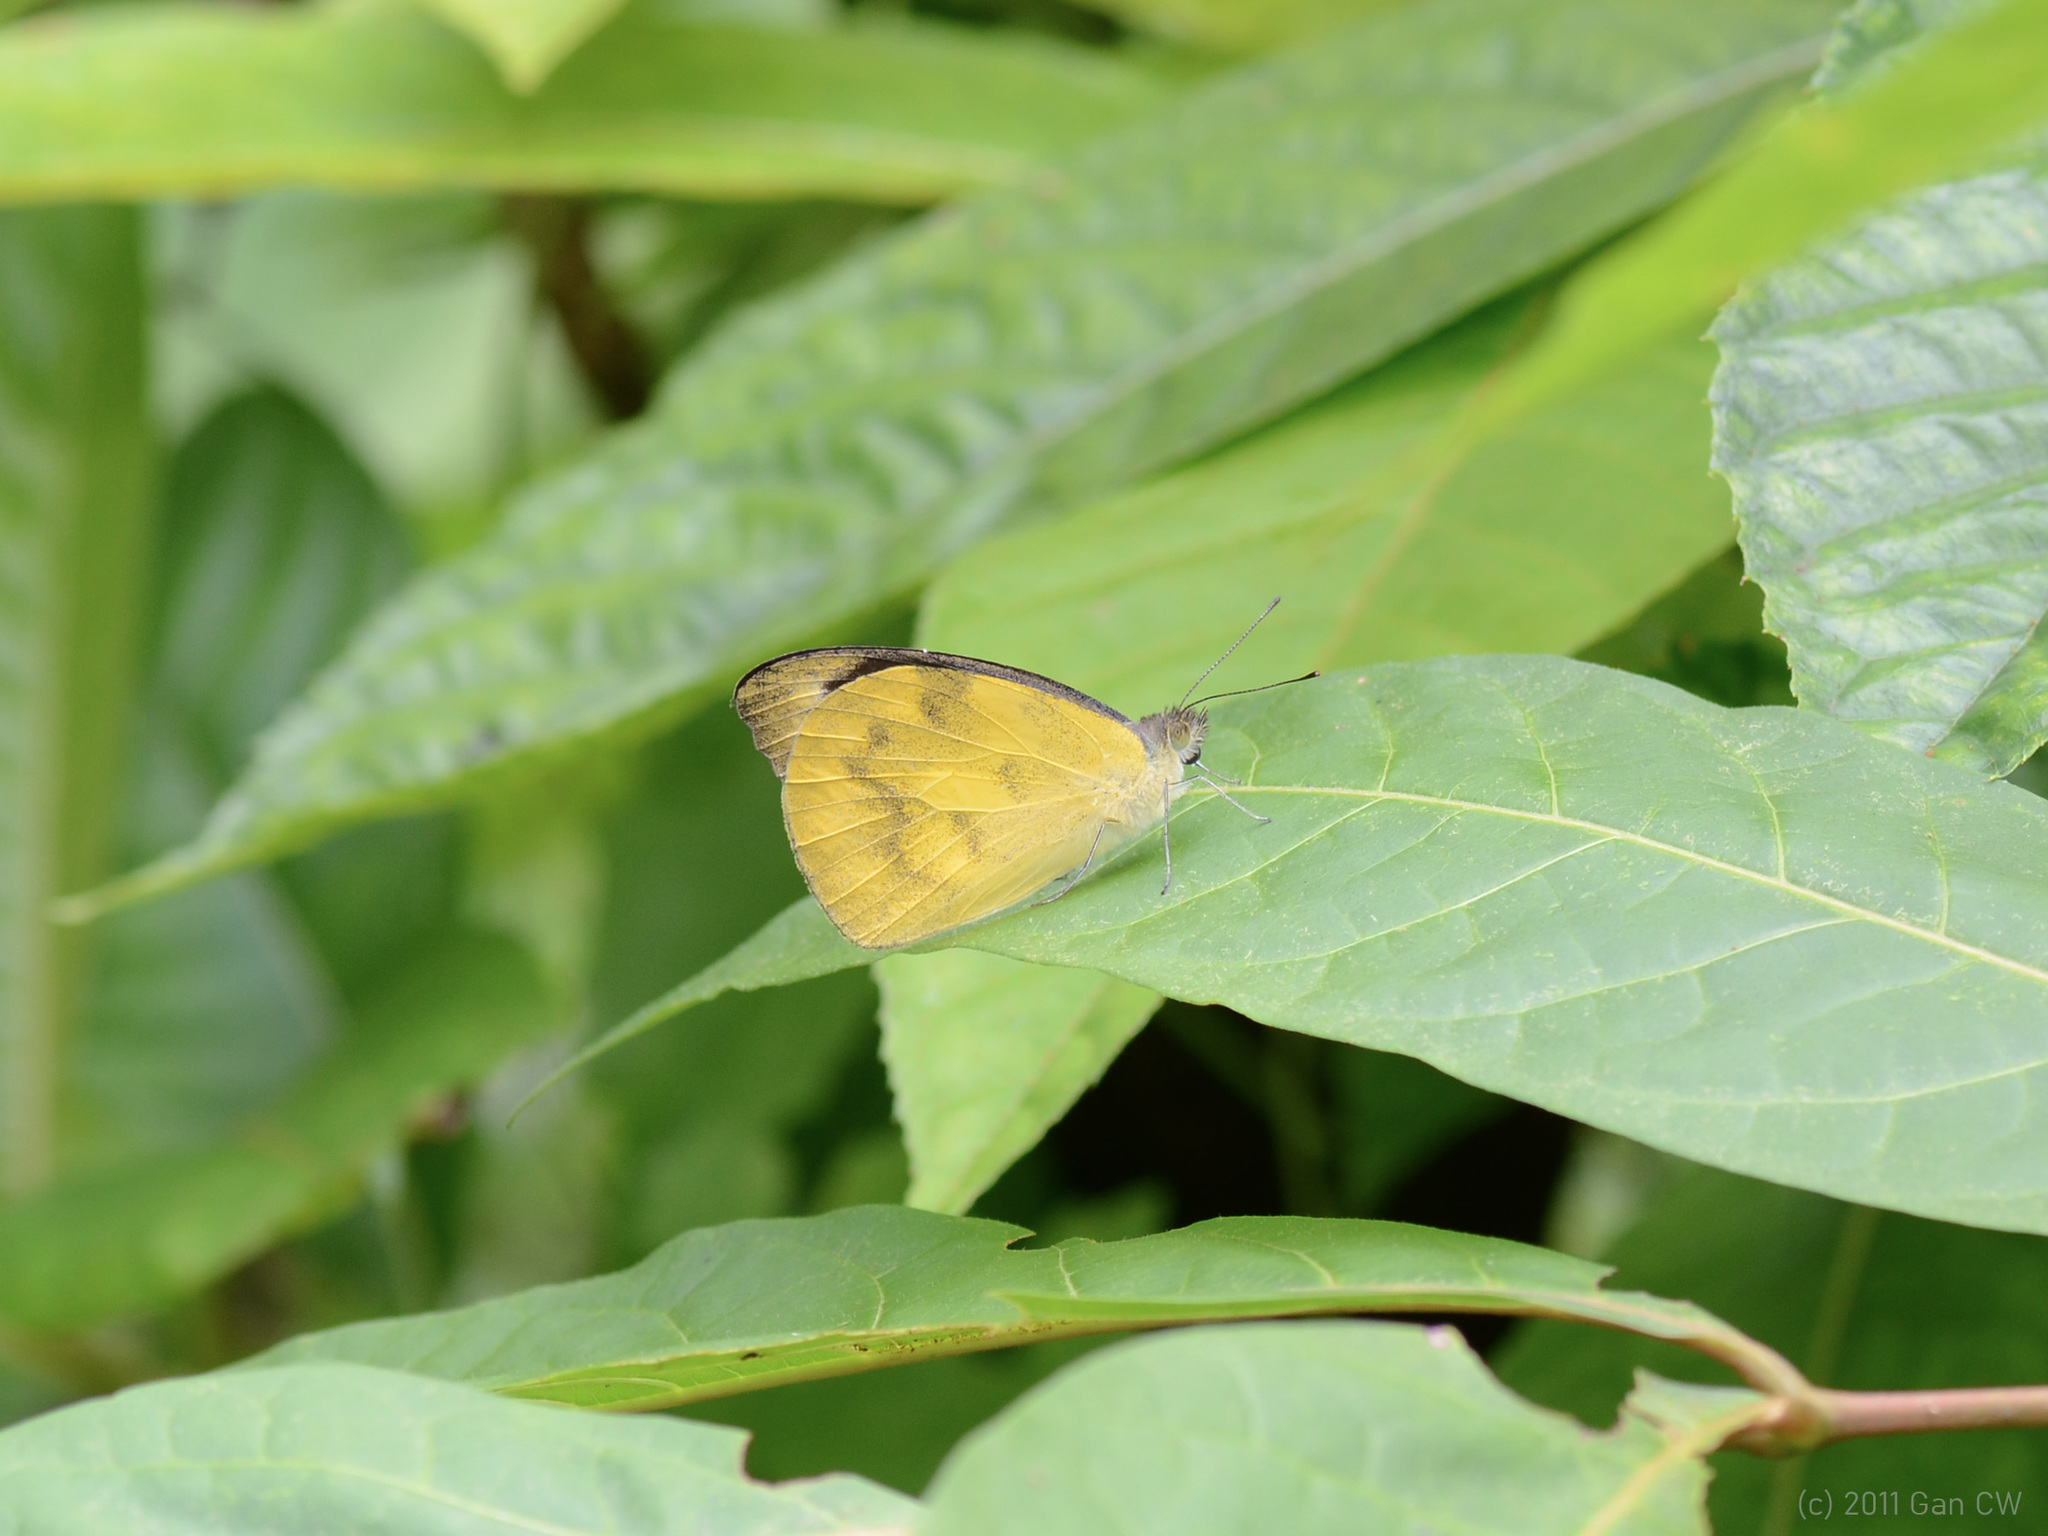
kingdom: Animalia
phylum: Arthropoda
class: Insecta
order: Lepidoptera
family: Pieridae
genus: Appias
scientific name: Appias pandione
